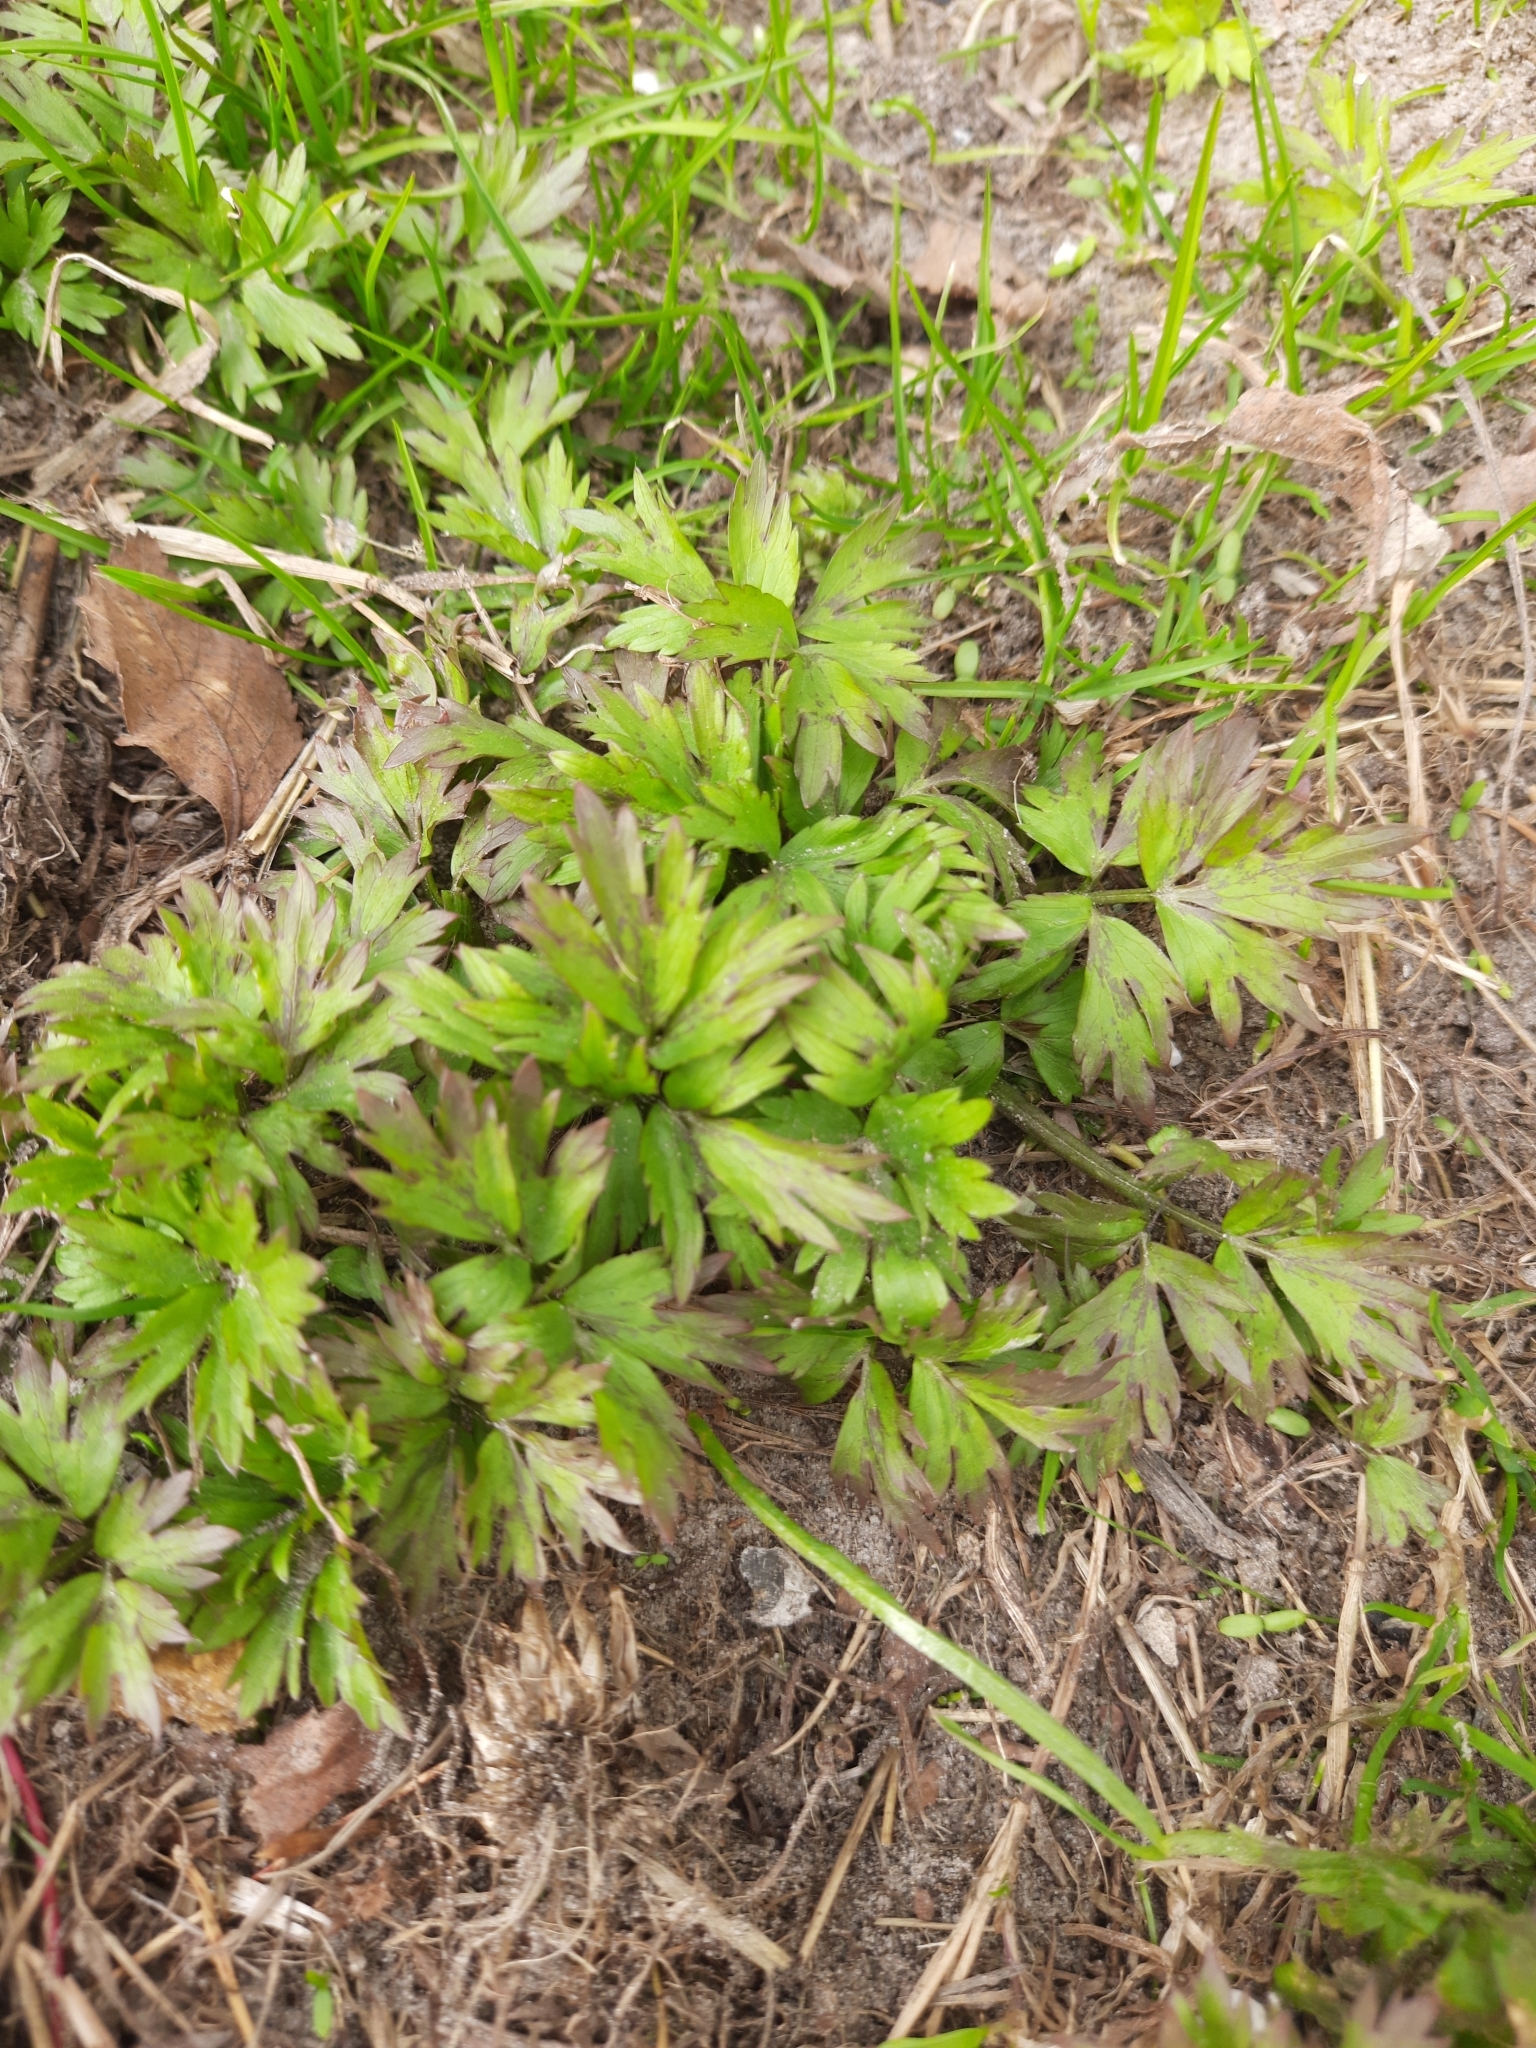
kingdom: Plantae
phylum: Tracheophyta
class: Magnoliopsida
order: Ranunculales
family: Ranunculaceae
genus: Ranunculus
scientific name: Ranunculus repens
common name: Creeping buttercup
